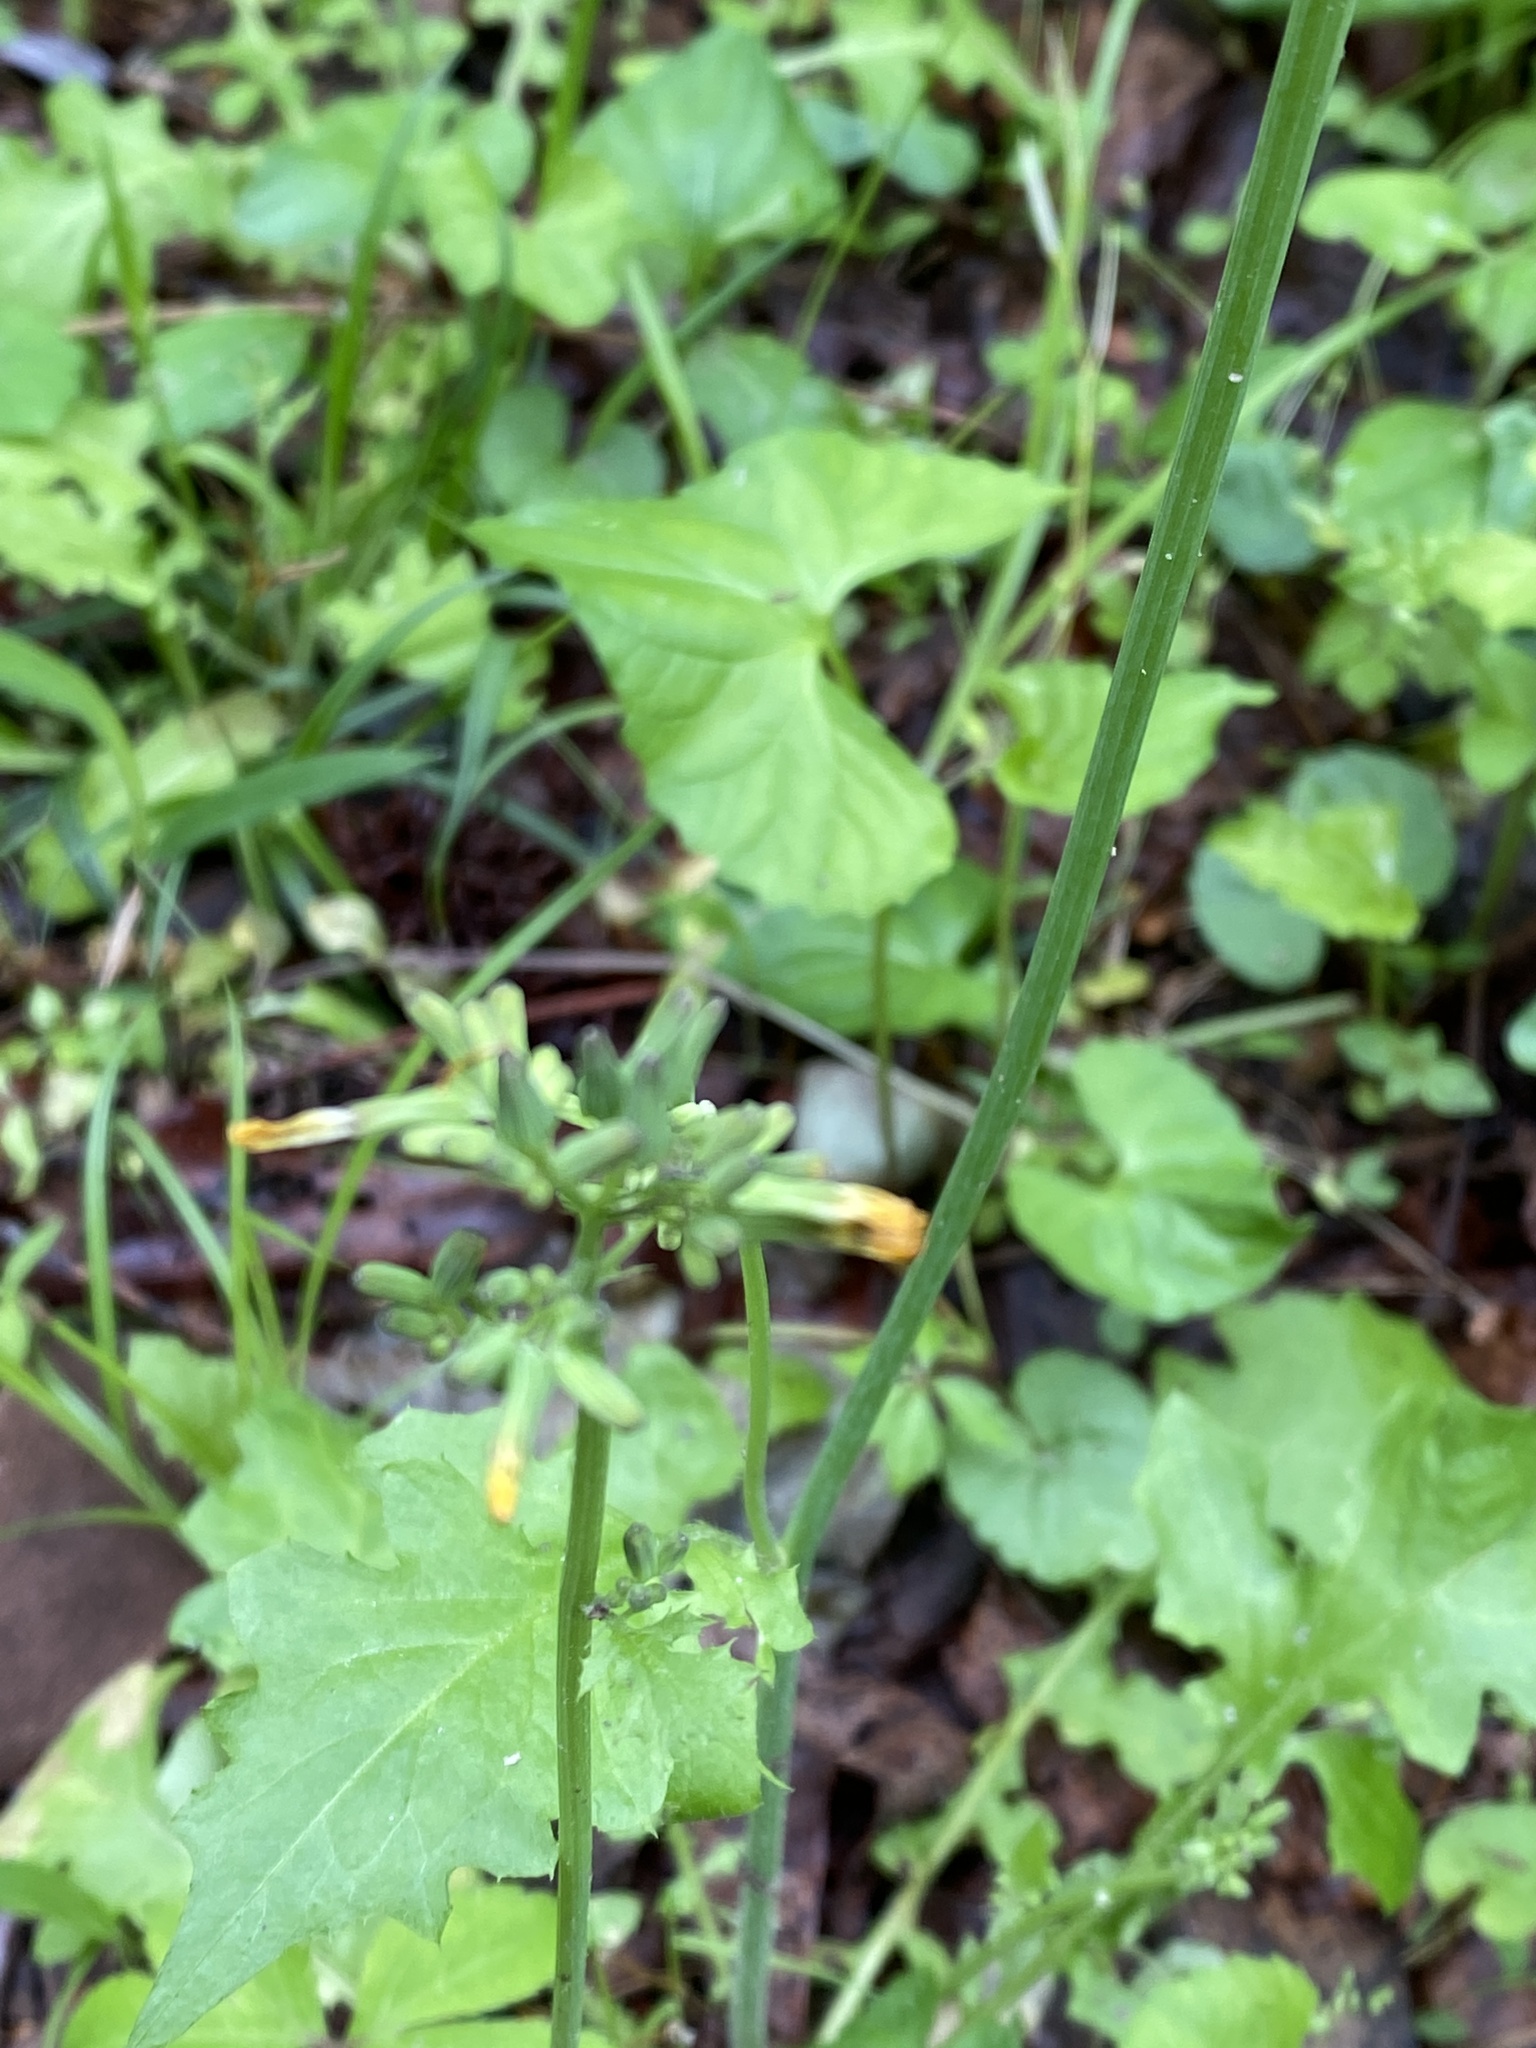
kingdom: Plantae
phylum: Tracheophyta
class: Magnoliopsida
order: Asterales
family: Asteraceae
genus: Youngia
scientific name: Youngia japonica
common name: Oriental false hawksbeard
